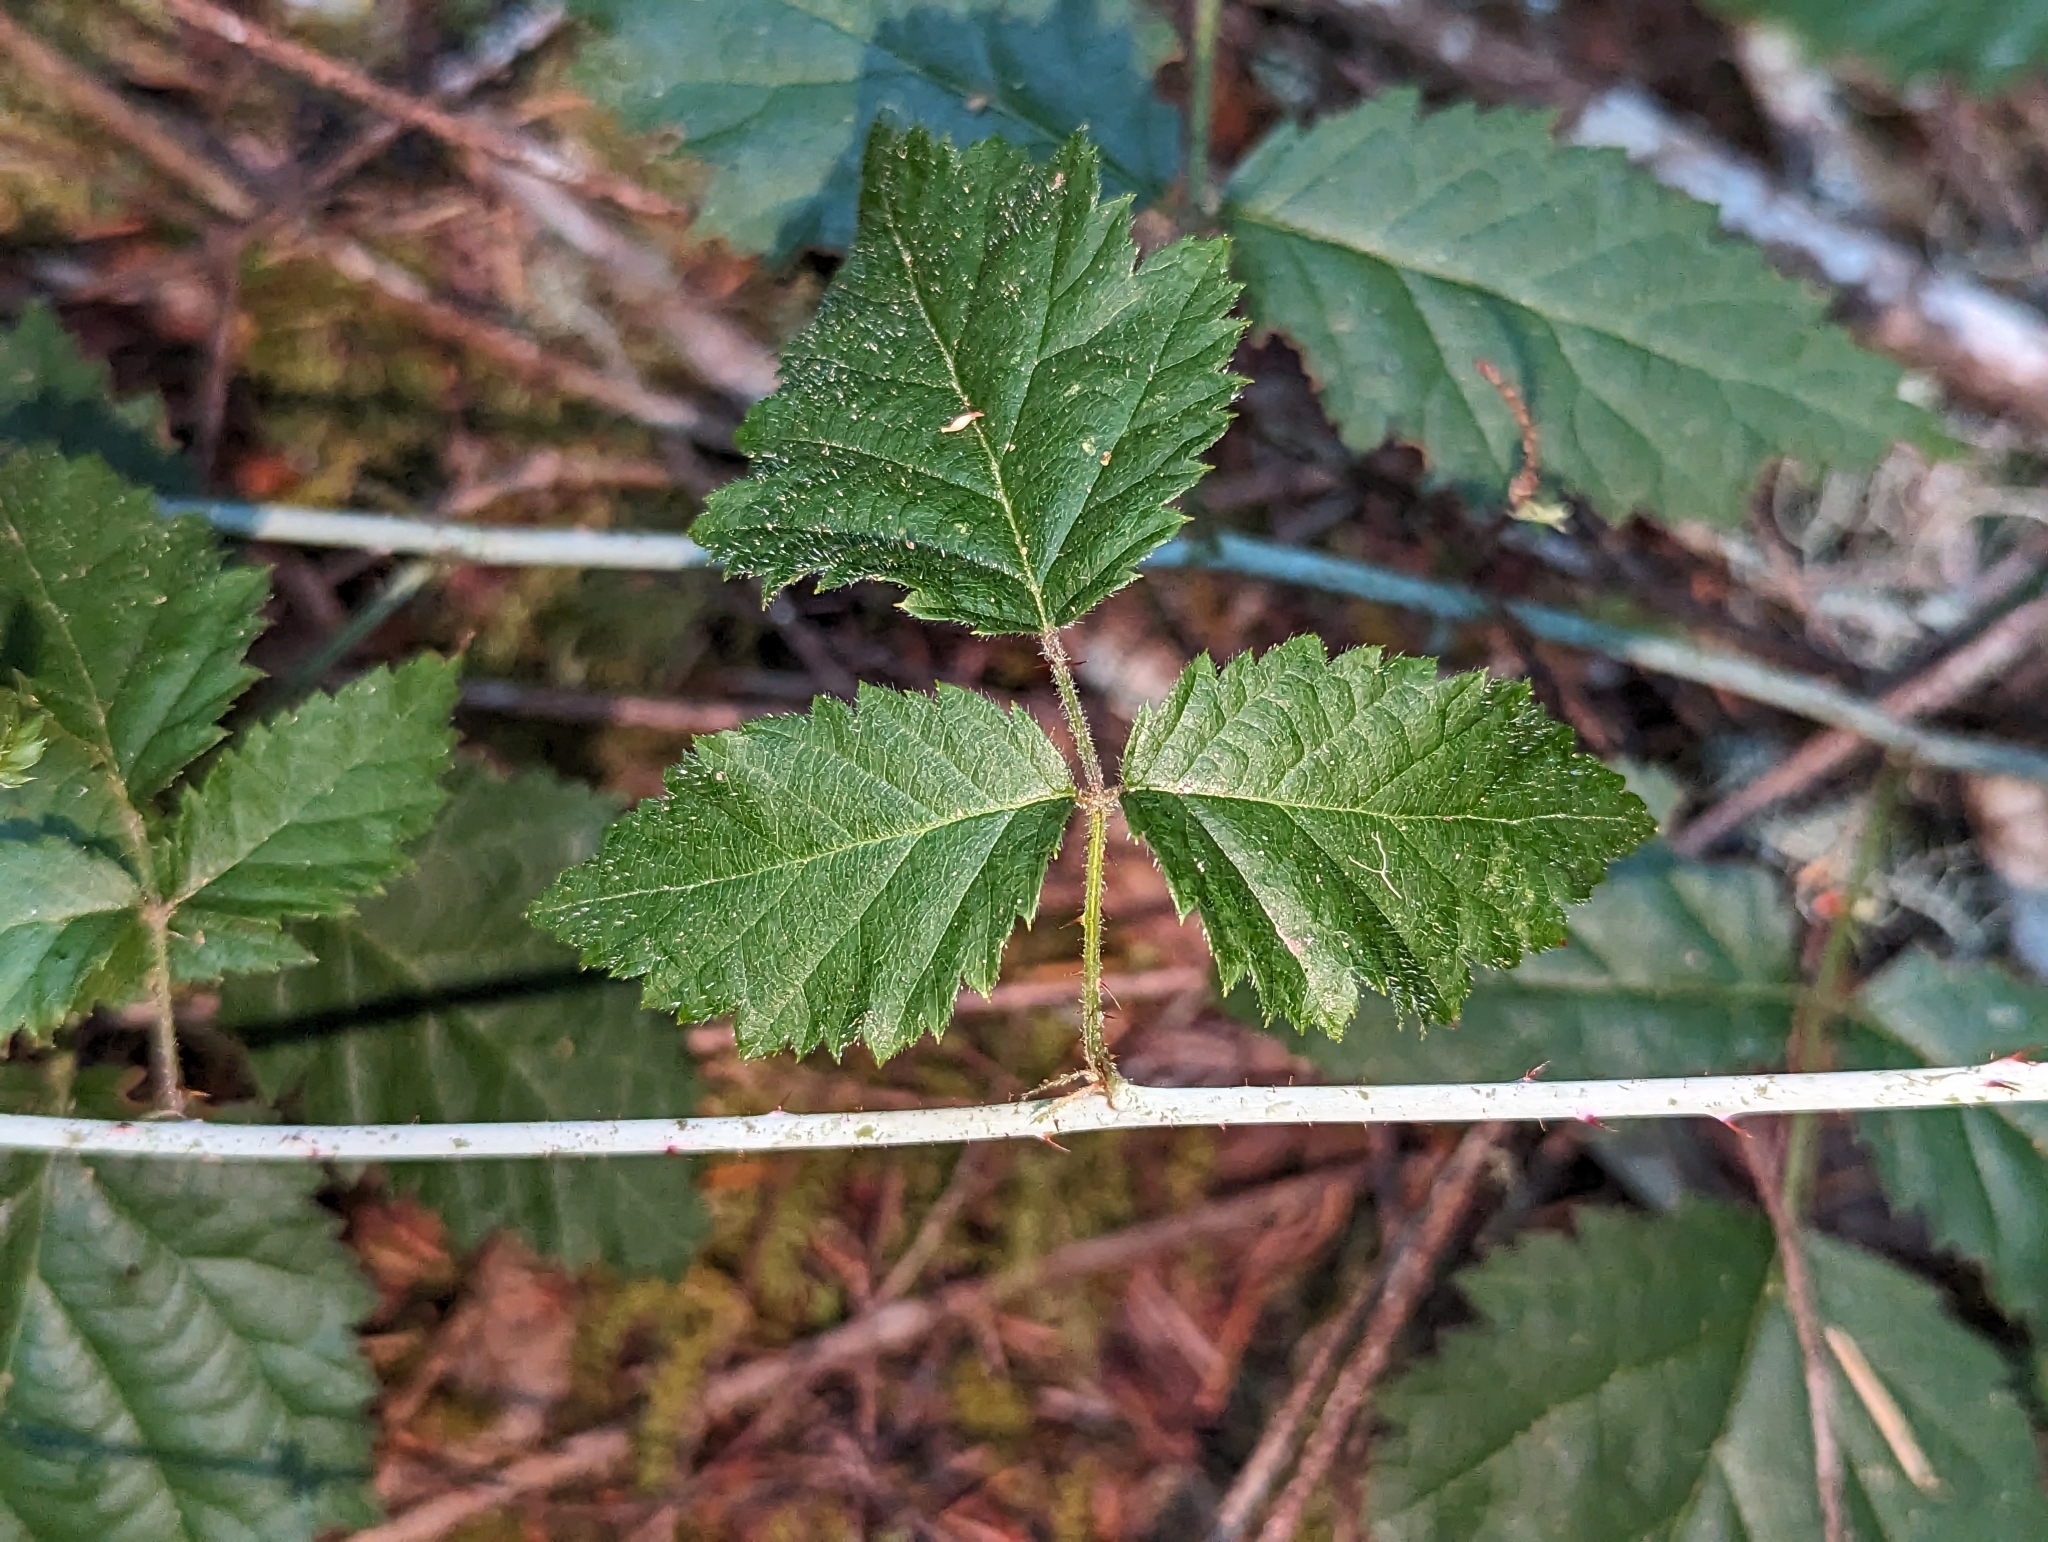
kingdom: Plantae
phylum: Tracheophyta
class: Magnoliopsida
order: Rosales
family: Rosaceae
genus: Rubus
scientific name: Rubus ursinus
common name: Pacific blackberry
